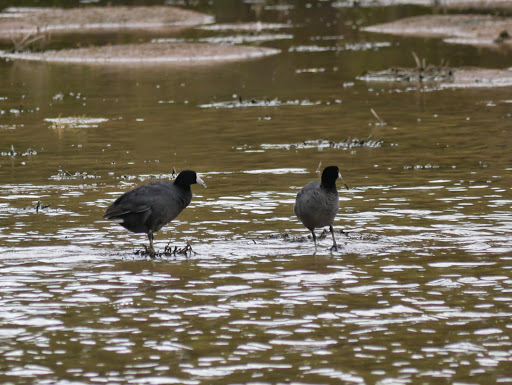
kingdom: Animalia
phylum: Chordata
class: Aves
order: Gruiformes
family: Rallidae
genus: Fulica
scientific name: Fulica americana
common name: American coot
